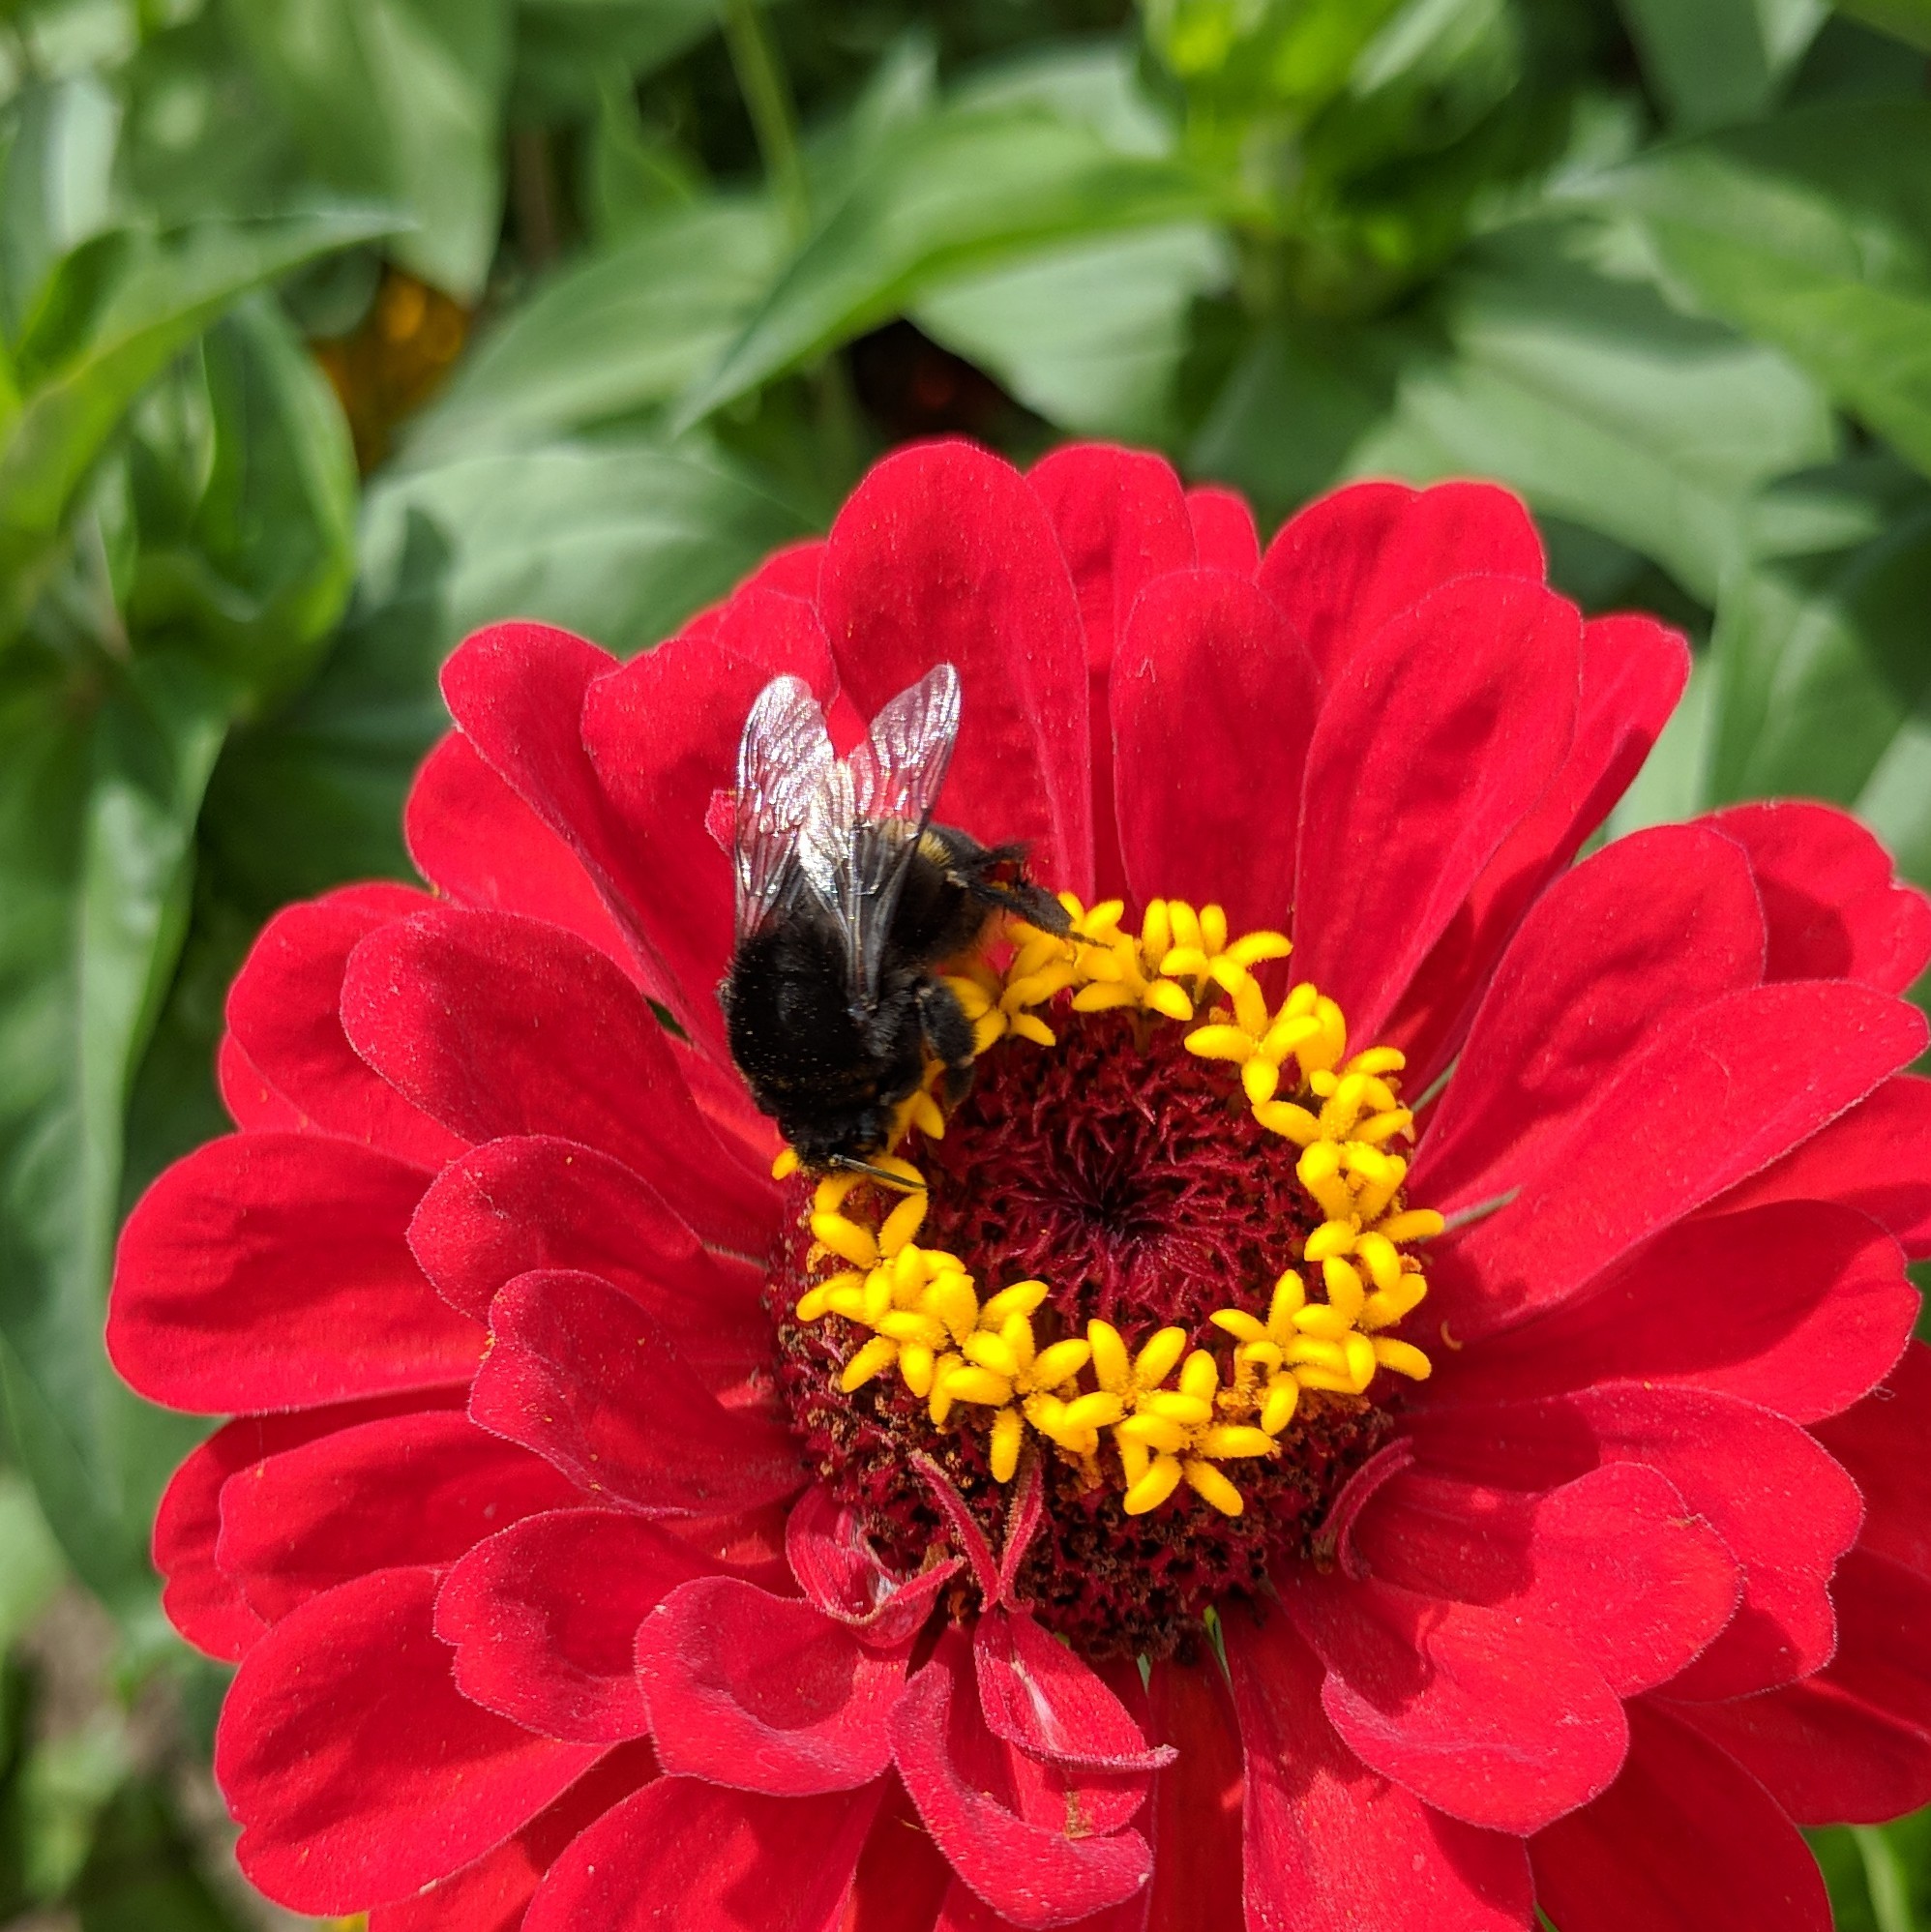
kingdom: Animalia
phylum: Arthropoda
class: Insecta
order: Hymenoptera
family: Apidae
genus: Bombus
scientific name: Bombus ignitus
